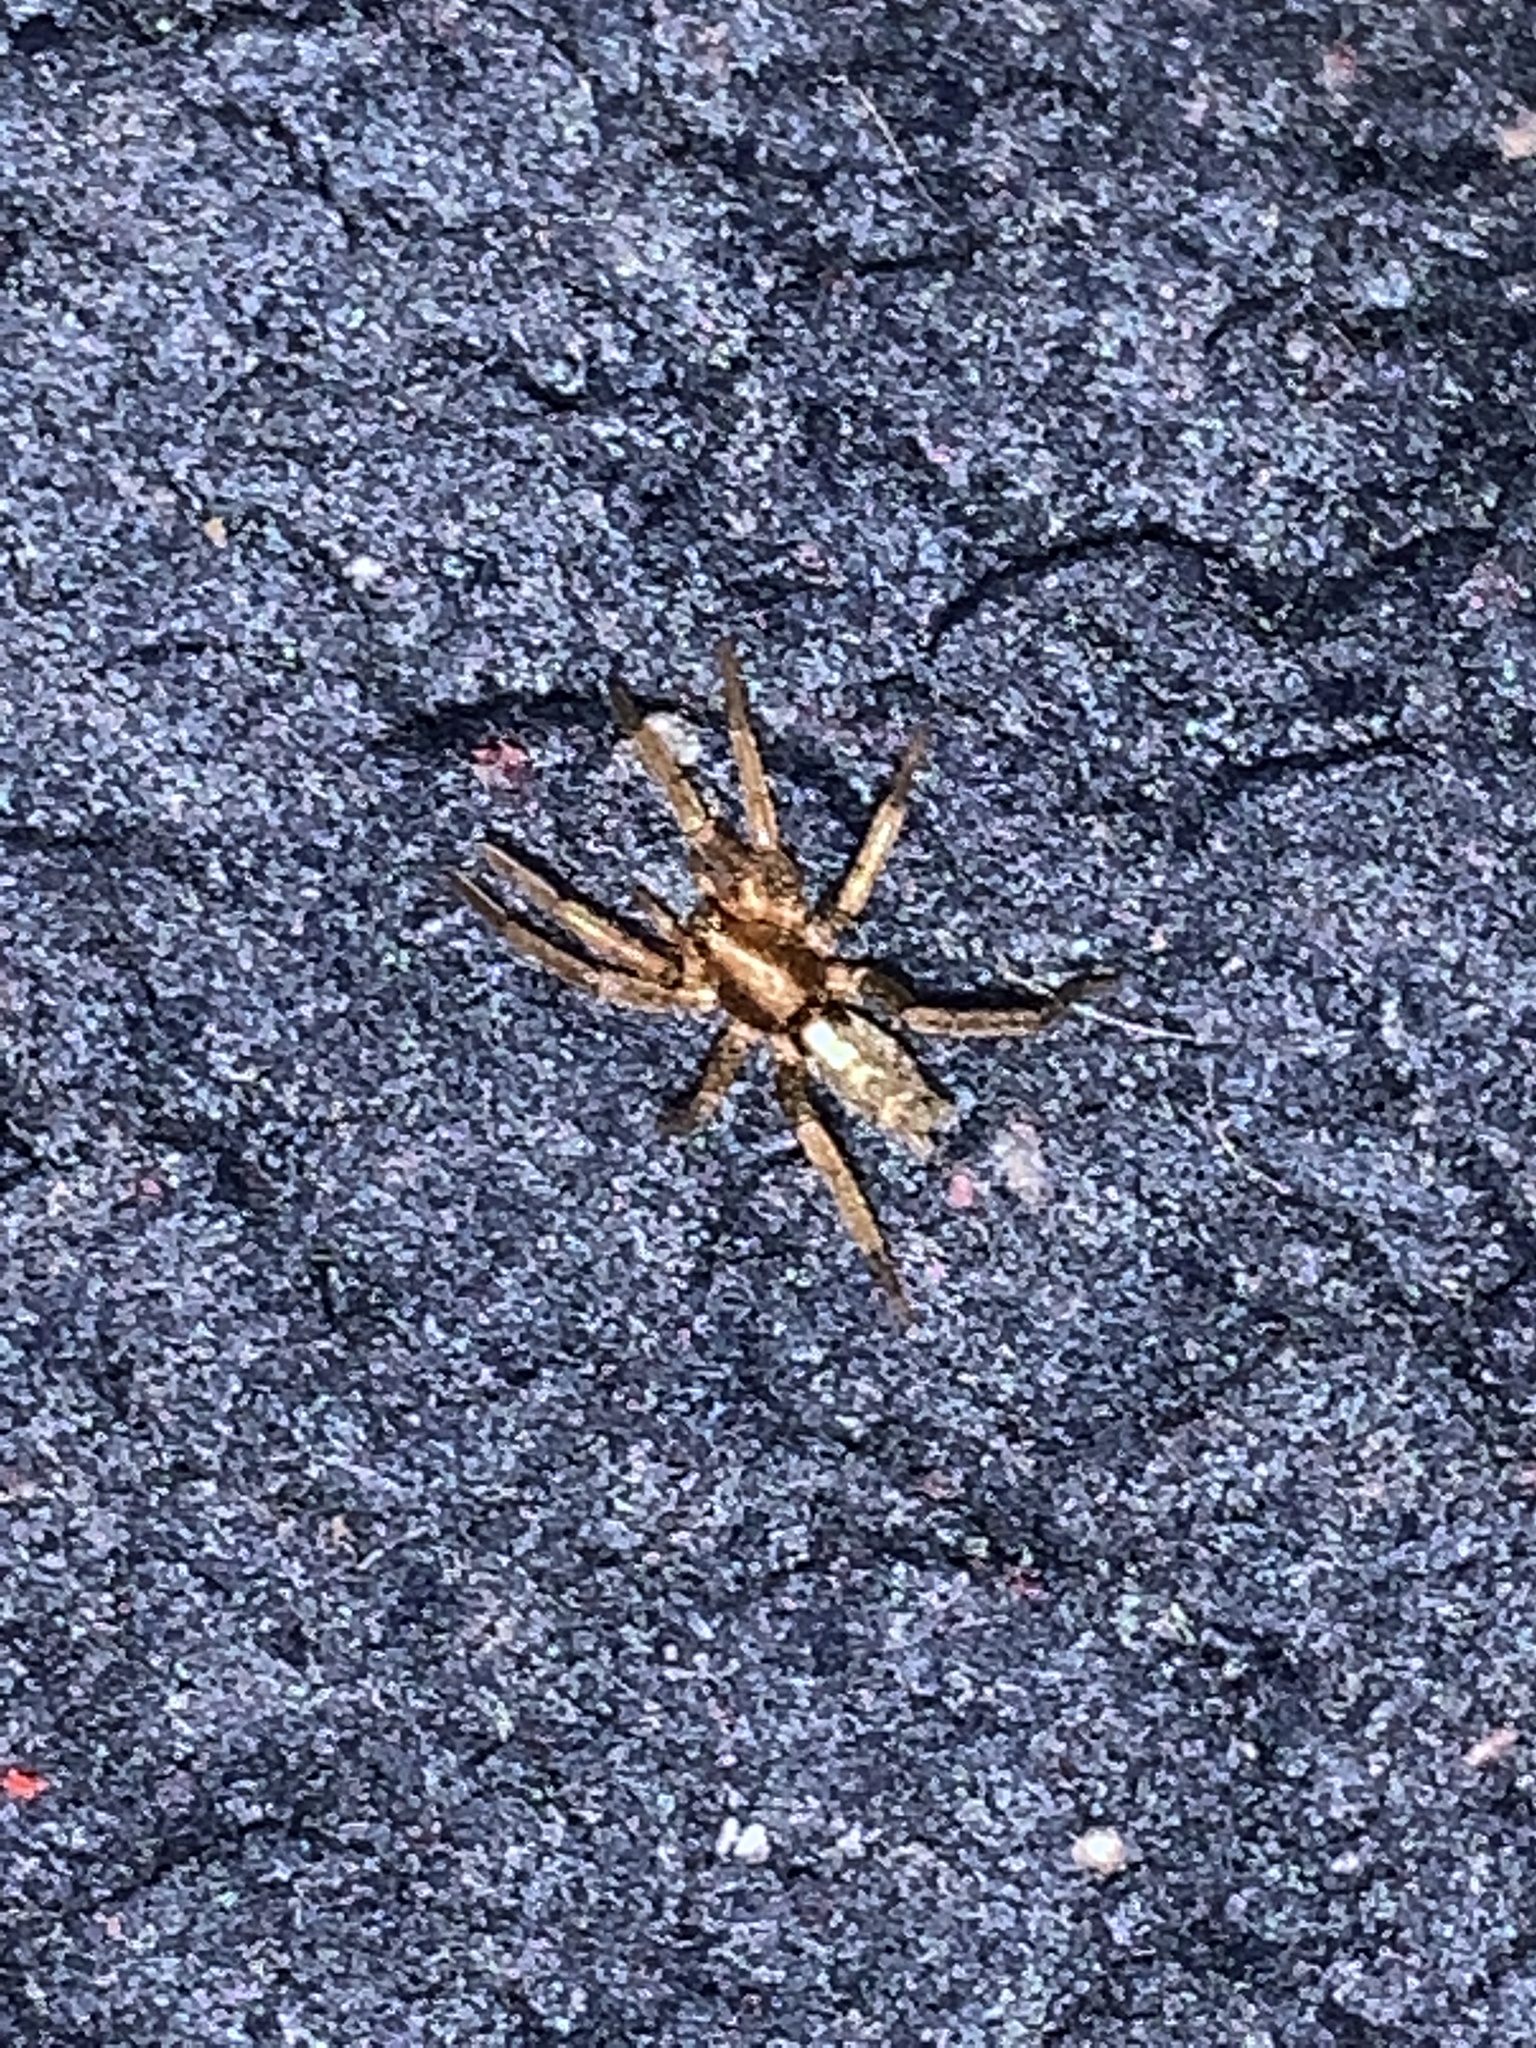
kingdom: Animalia
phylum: Arthropoda
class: Arachnida
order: Araneae
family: Gnaphosidae
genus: Herpyllus
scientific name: Herpyllus ecclesiasticus
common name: Eastern parson spider
